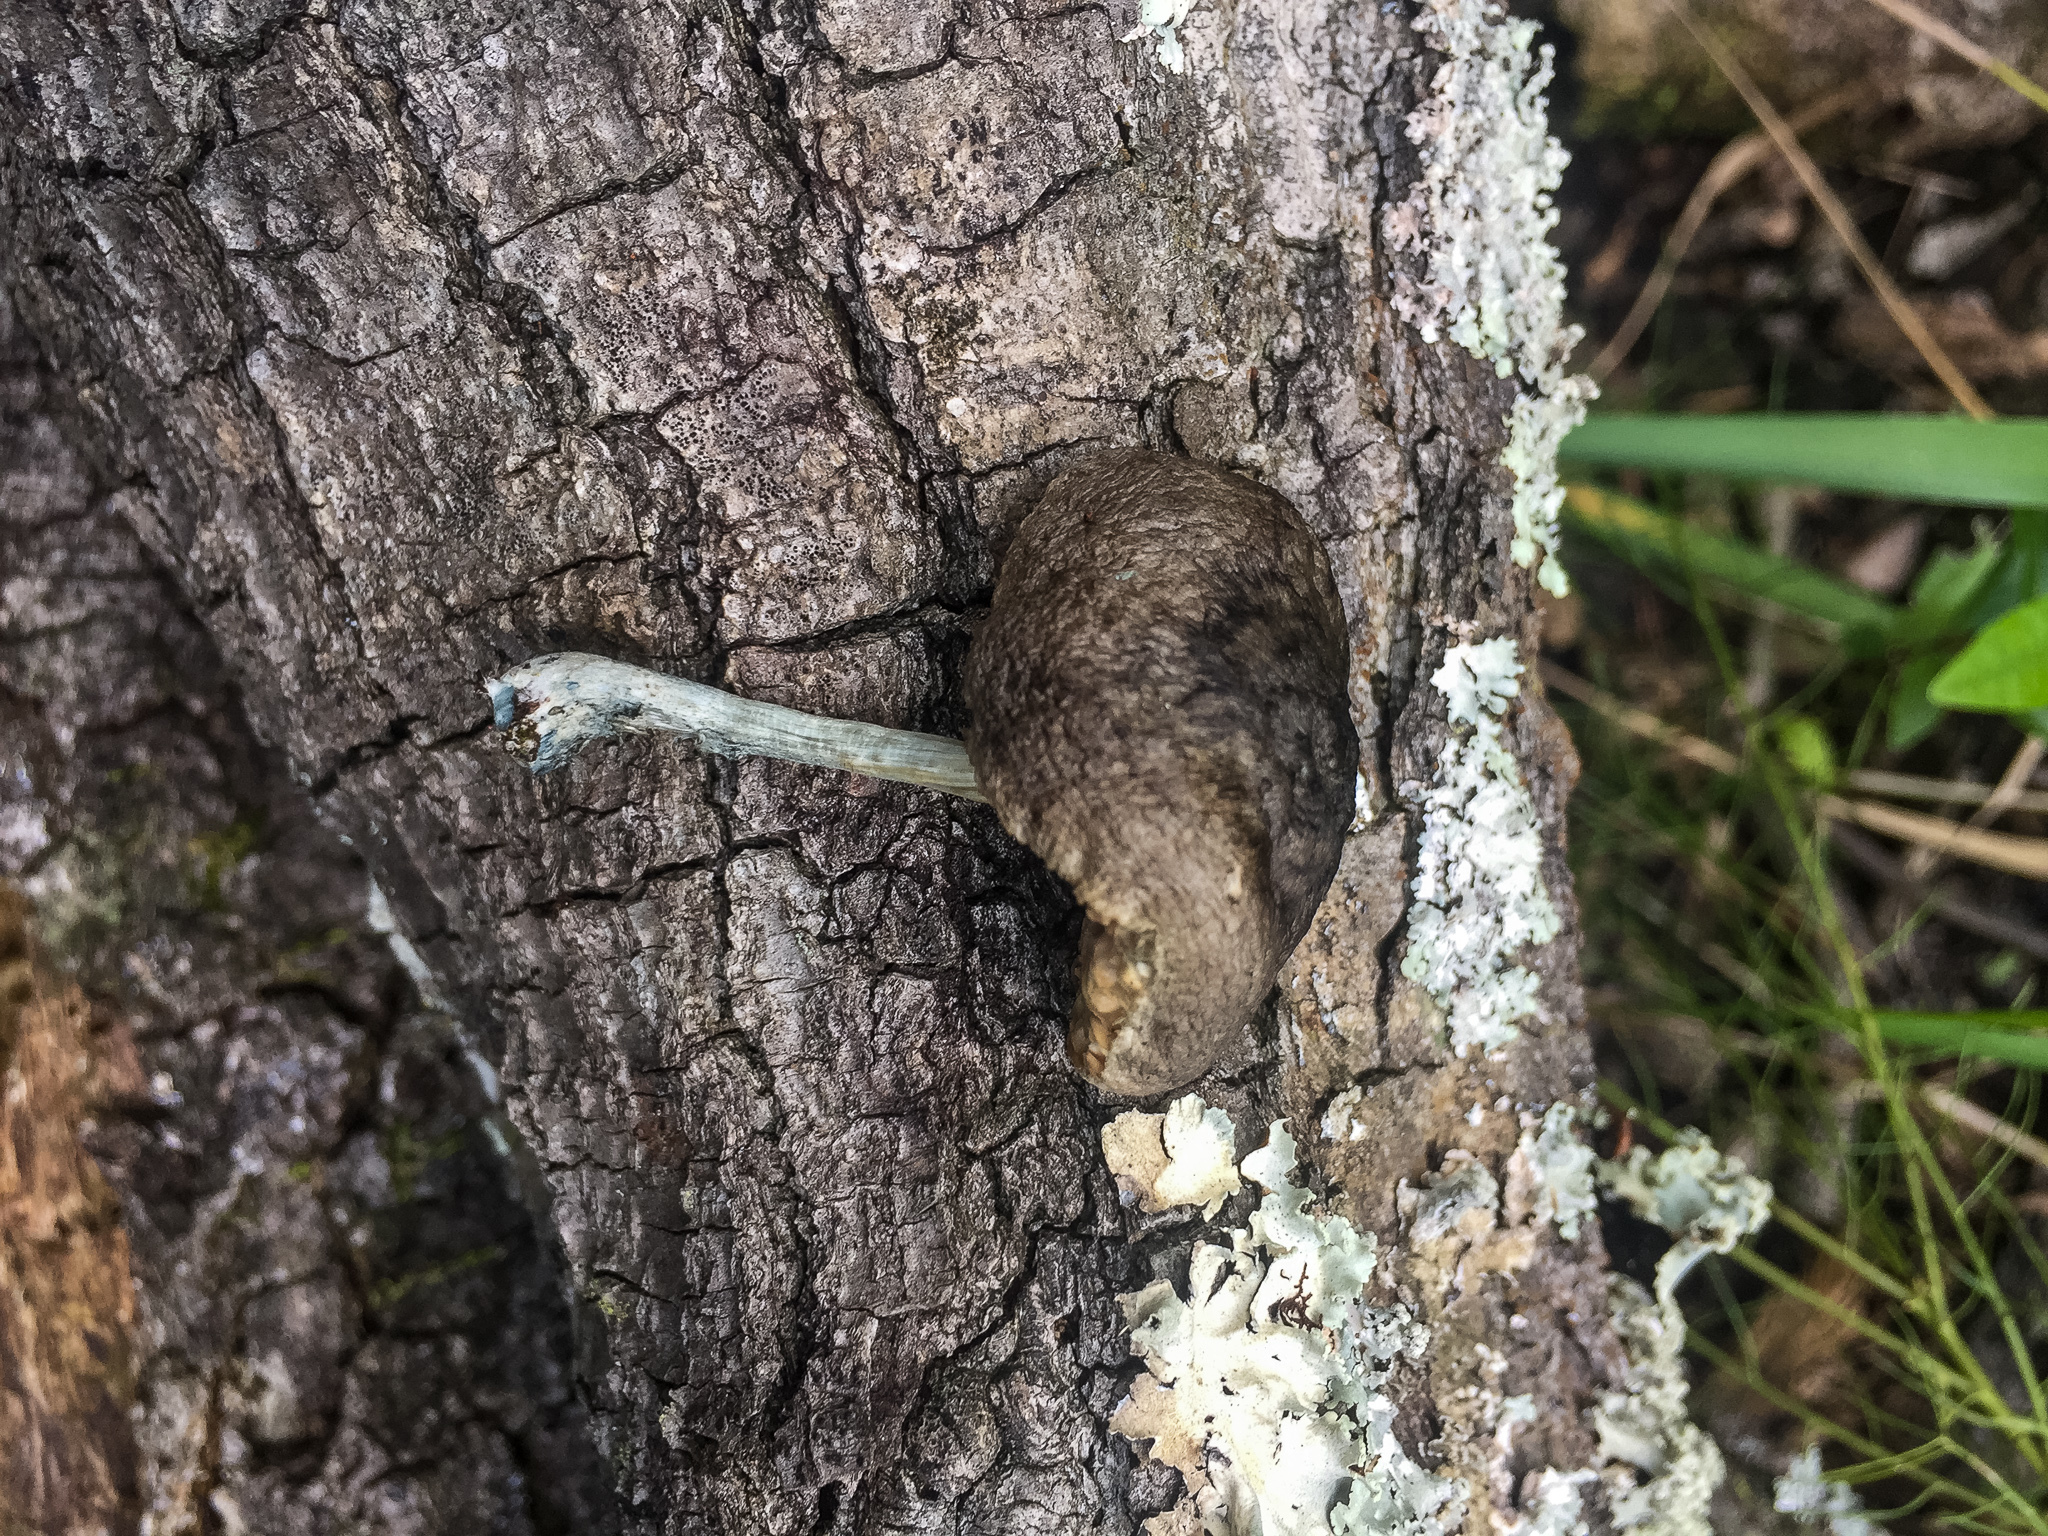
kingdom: Fungi
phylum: Basidiomycota
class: Agaricomycetes
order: Agaricales
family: Pluteaceae
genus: Pluteus
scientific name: Pluteus albostipitatus
